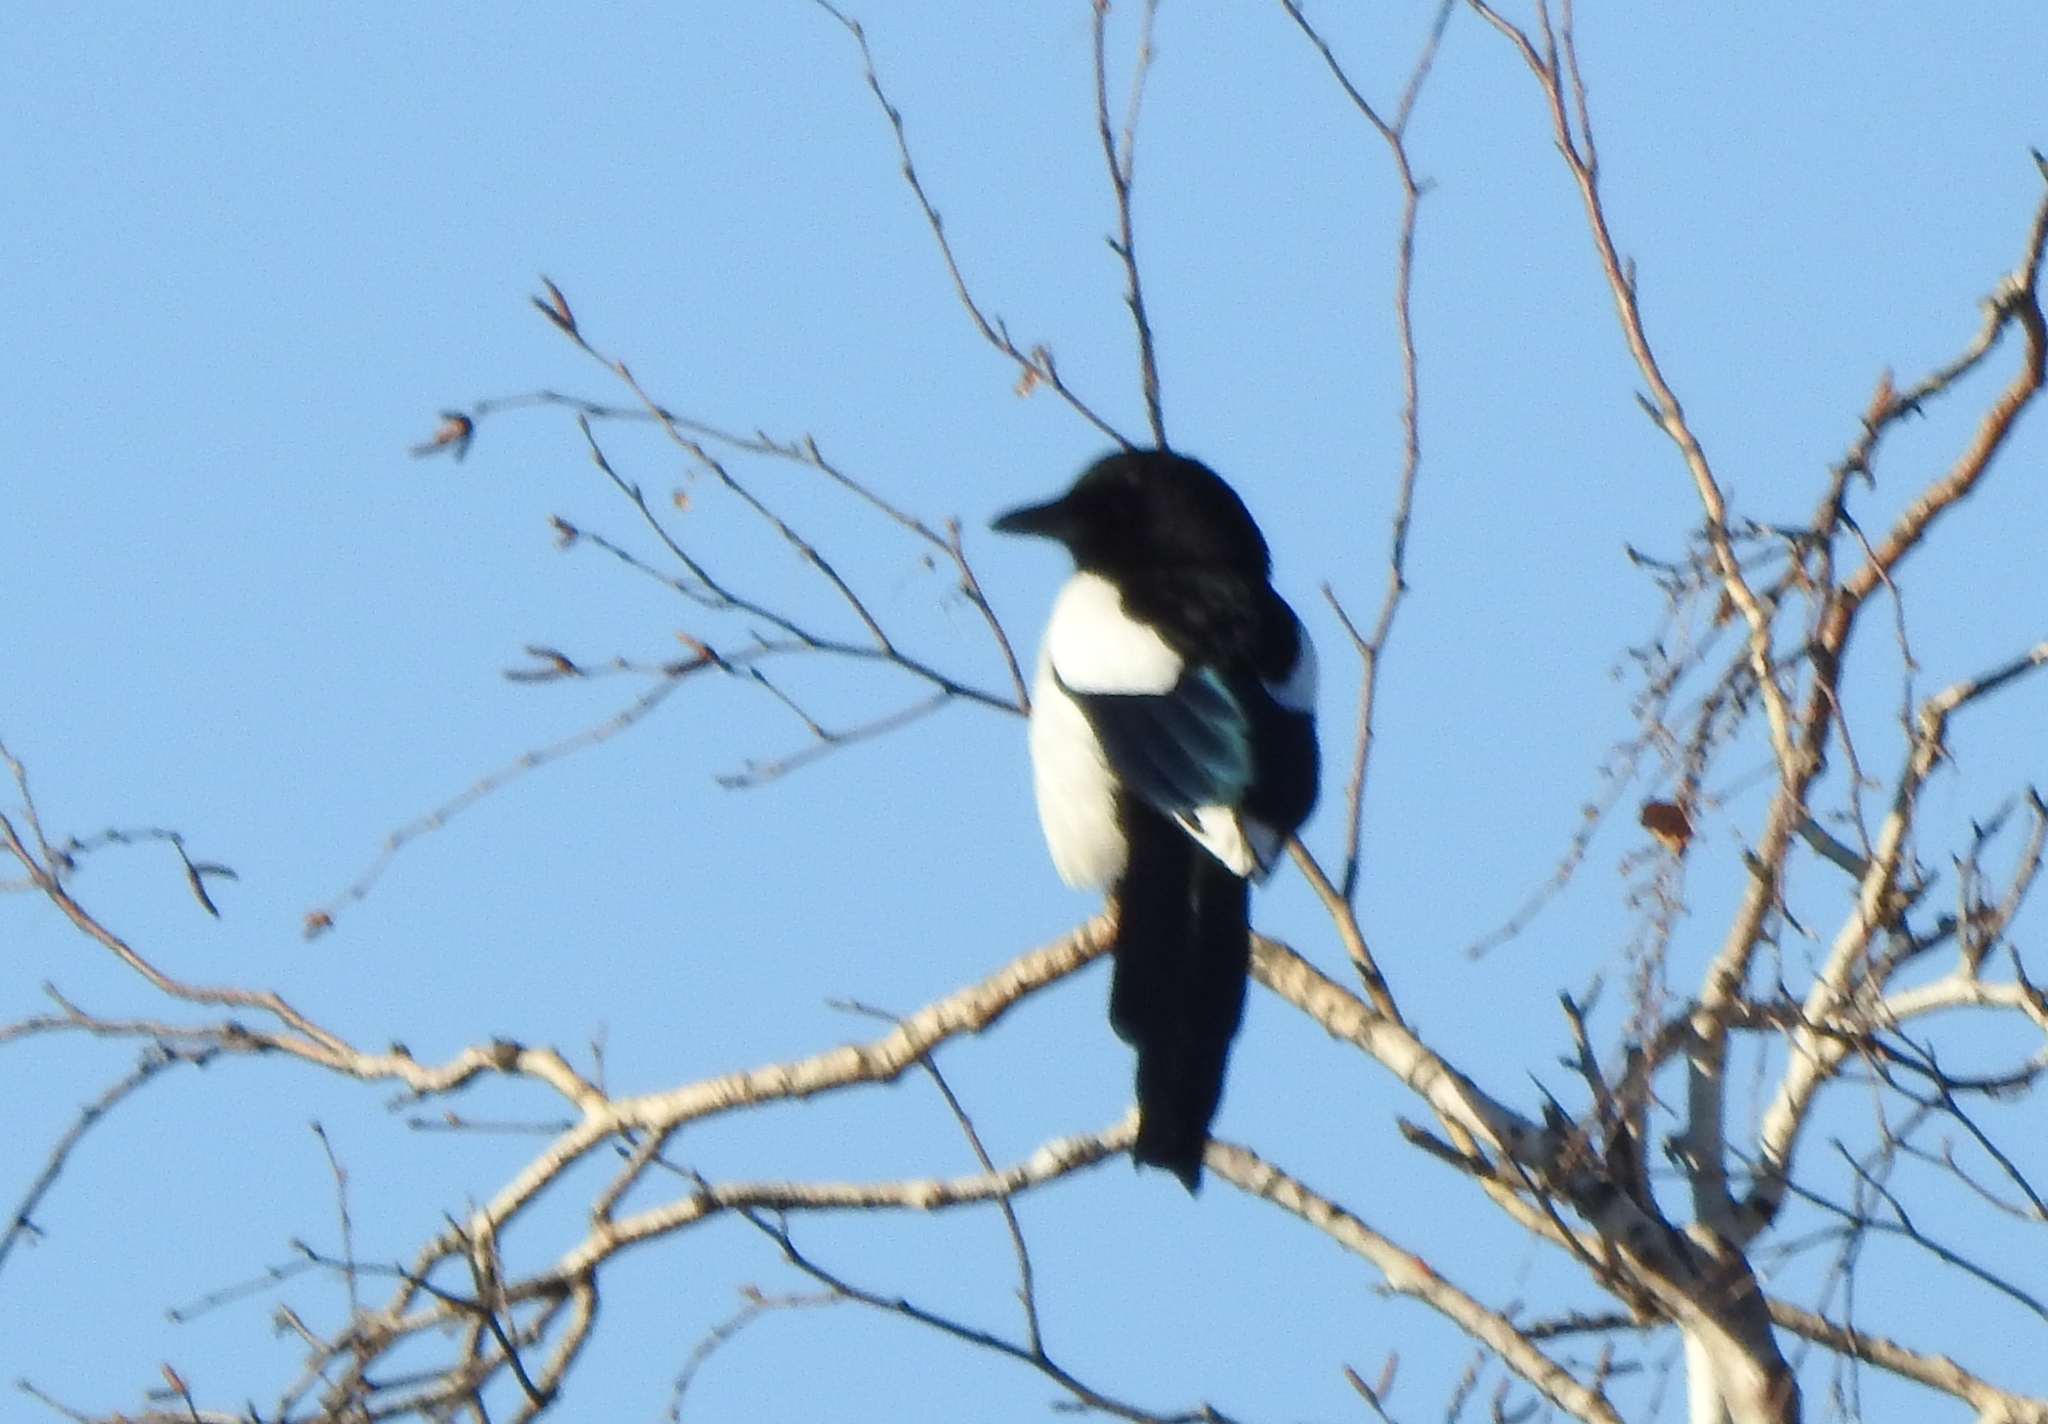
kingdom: Animalia
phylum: Chordata
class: Aves
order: Passeriformes
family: Corvidae
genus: Pica
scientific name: Pica pica
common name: Eurasian magpie
